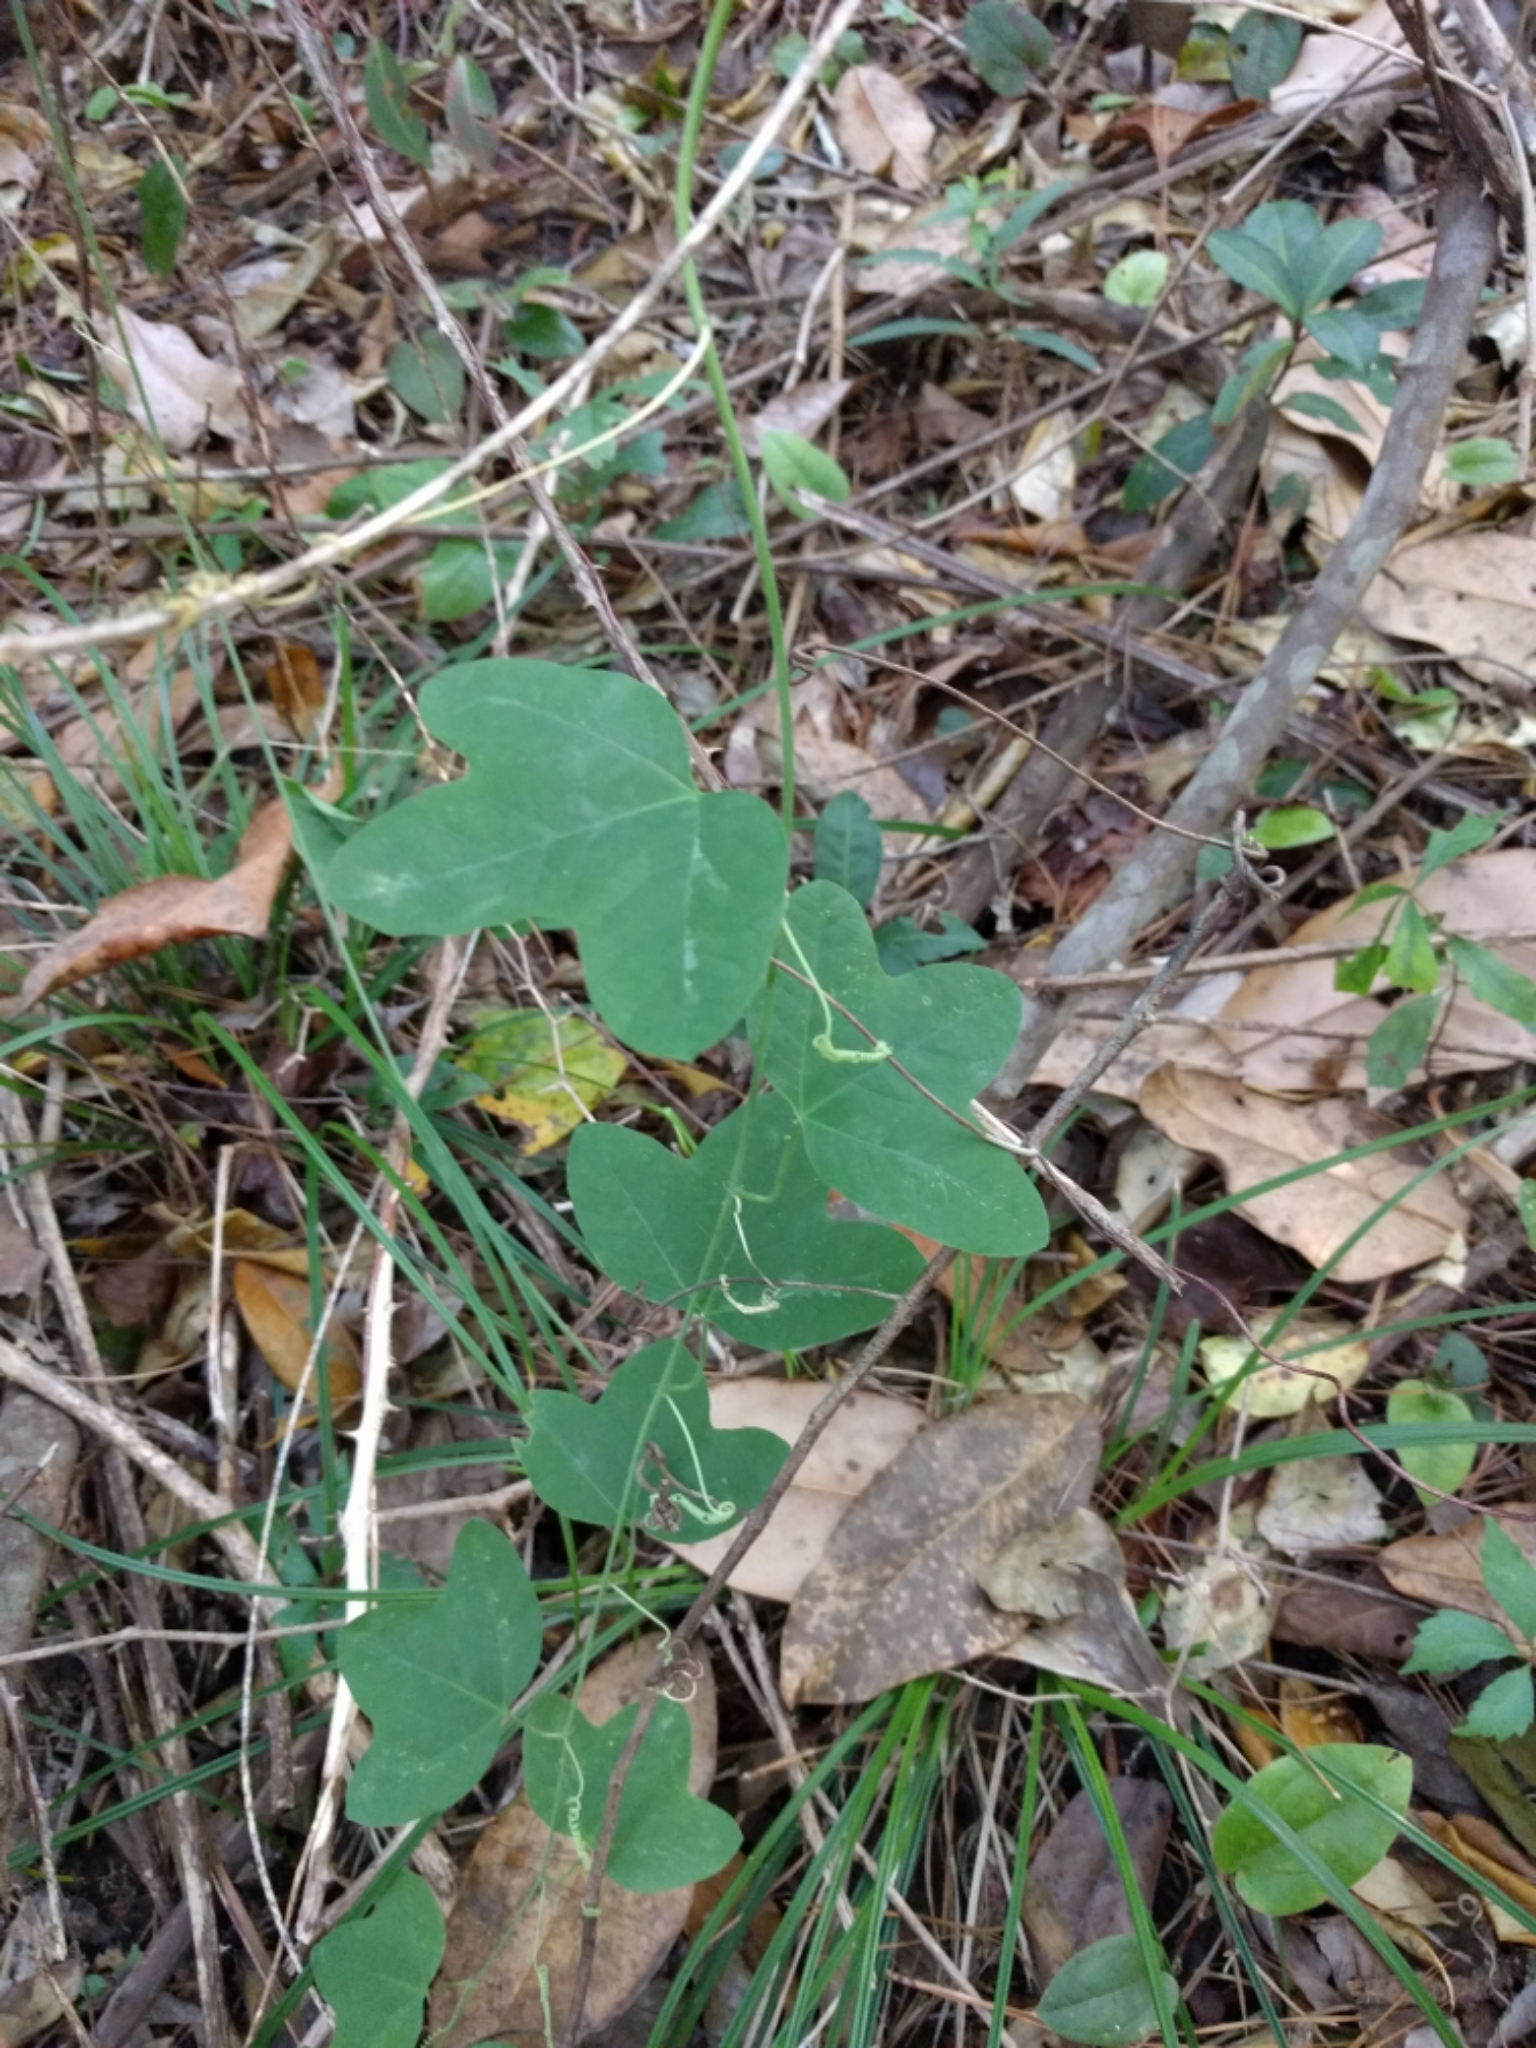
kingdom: Plantae
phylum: Tracheophyta
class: Magnoliopsida
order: Malpighiales
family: Passifloraceae
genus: Passiflora
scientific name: Passiflora lutea
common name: Yellow passionflower
